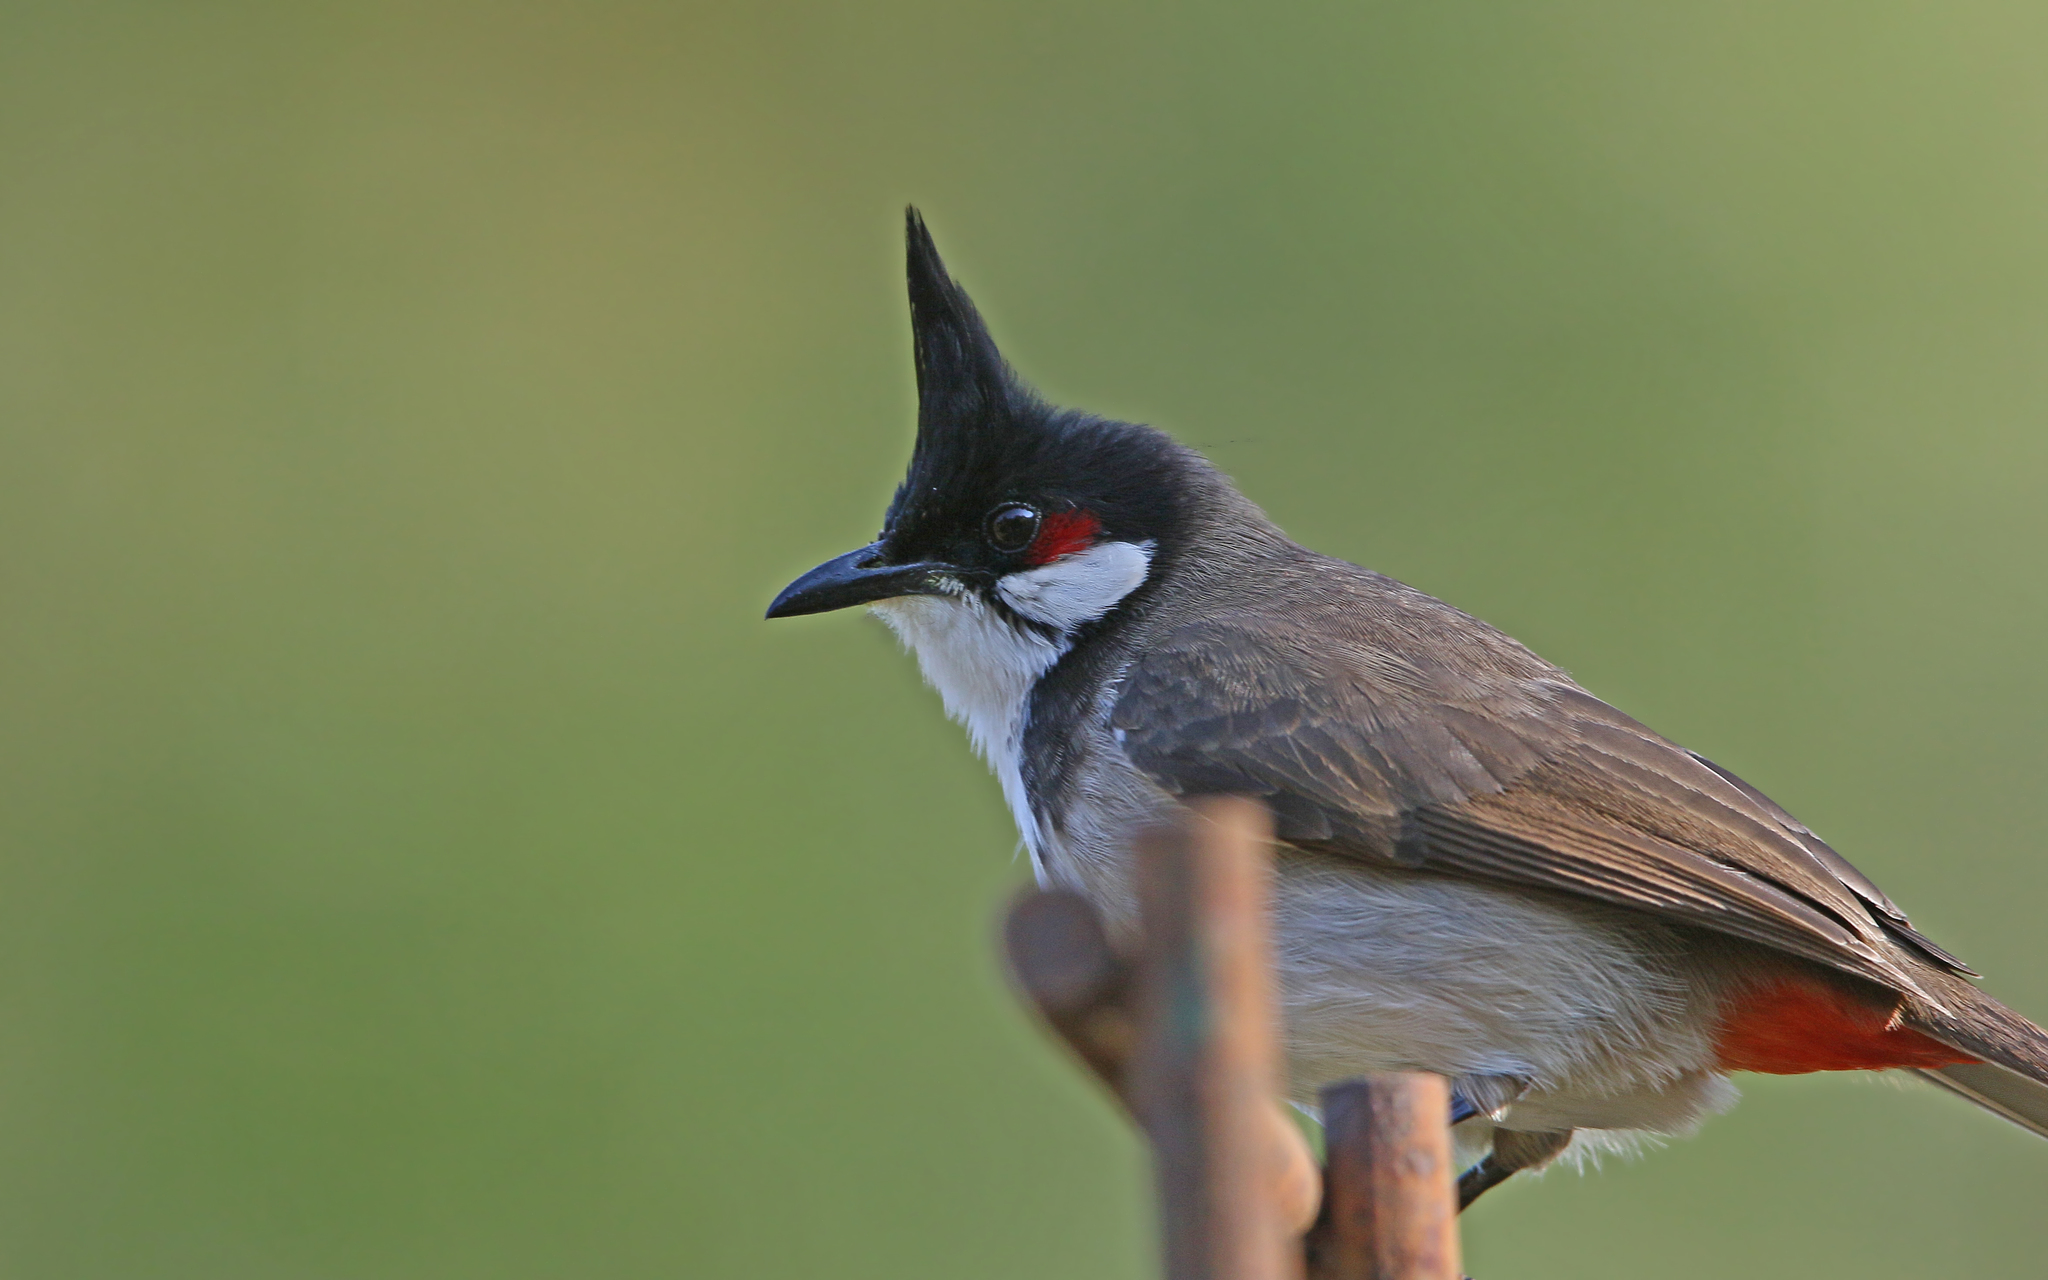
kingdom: Animalia
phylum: Chordata
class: Aves
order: Passeriformes
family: Pycnonotidae
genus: Pycnonotus
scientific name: Pycnonotus jocosus
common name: Red-whiskered bulbul
